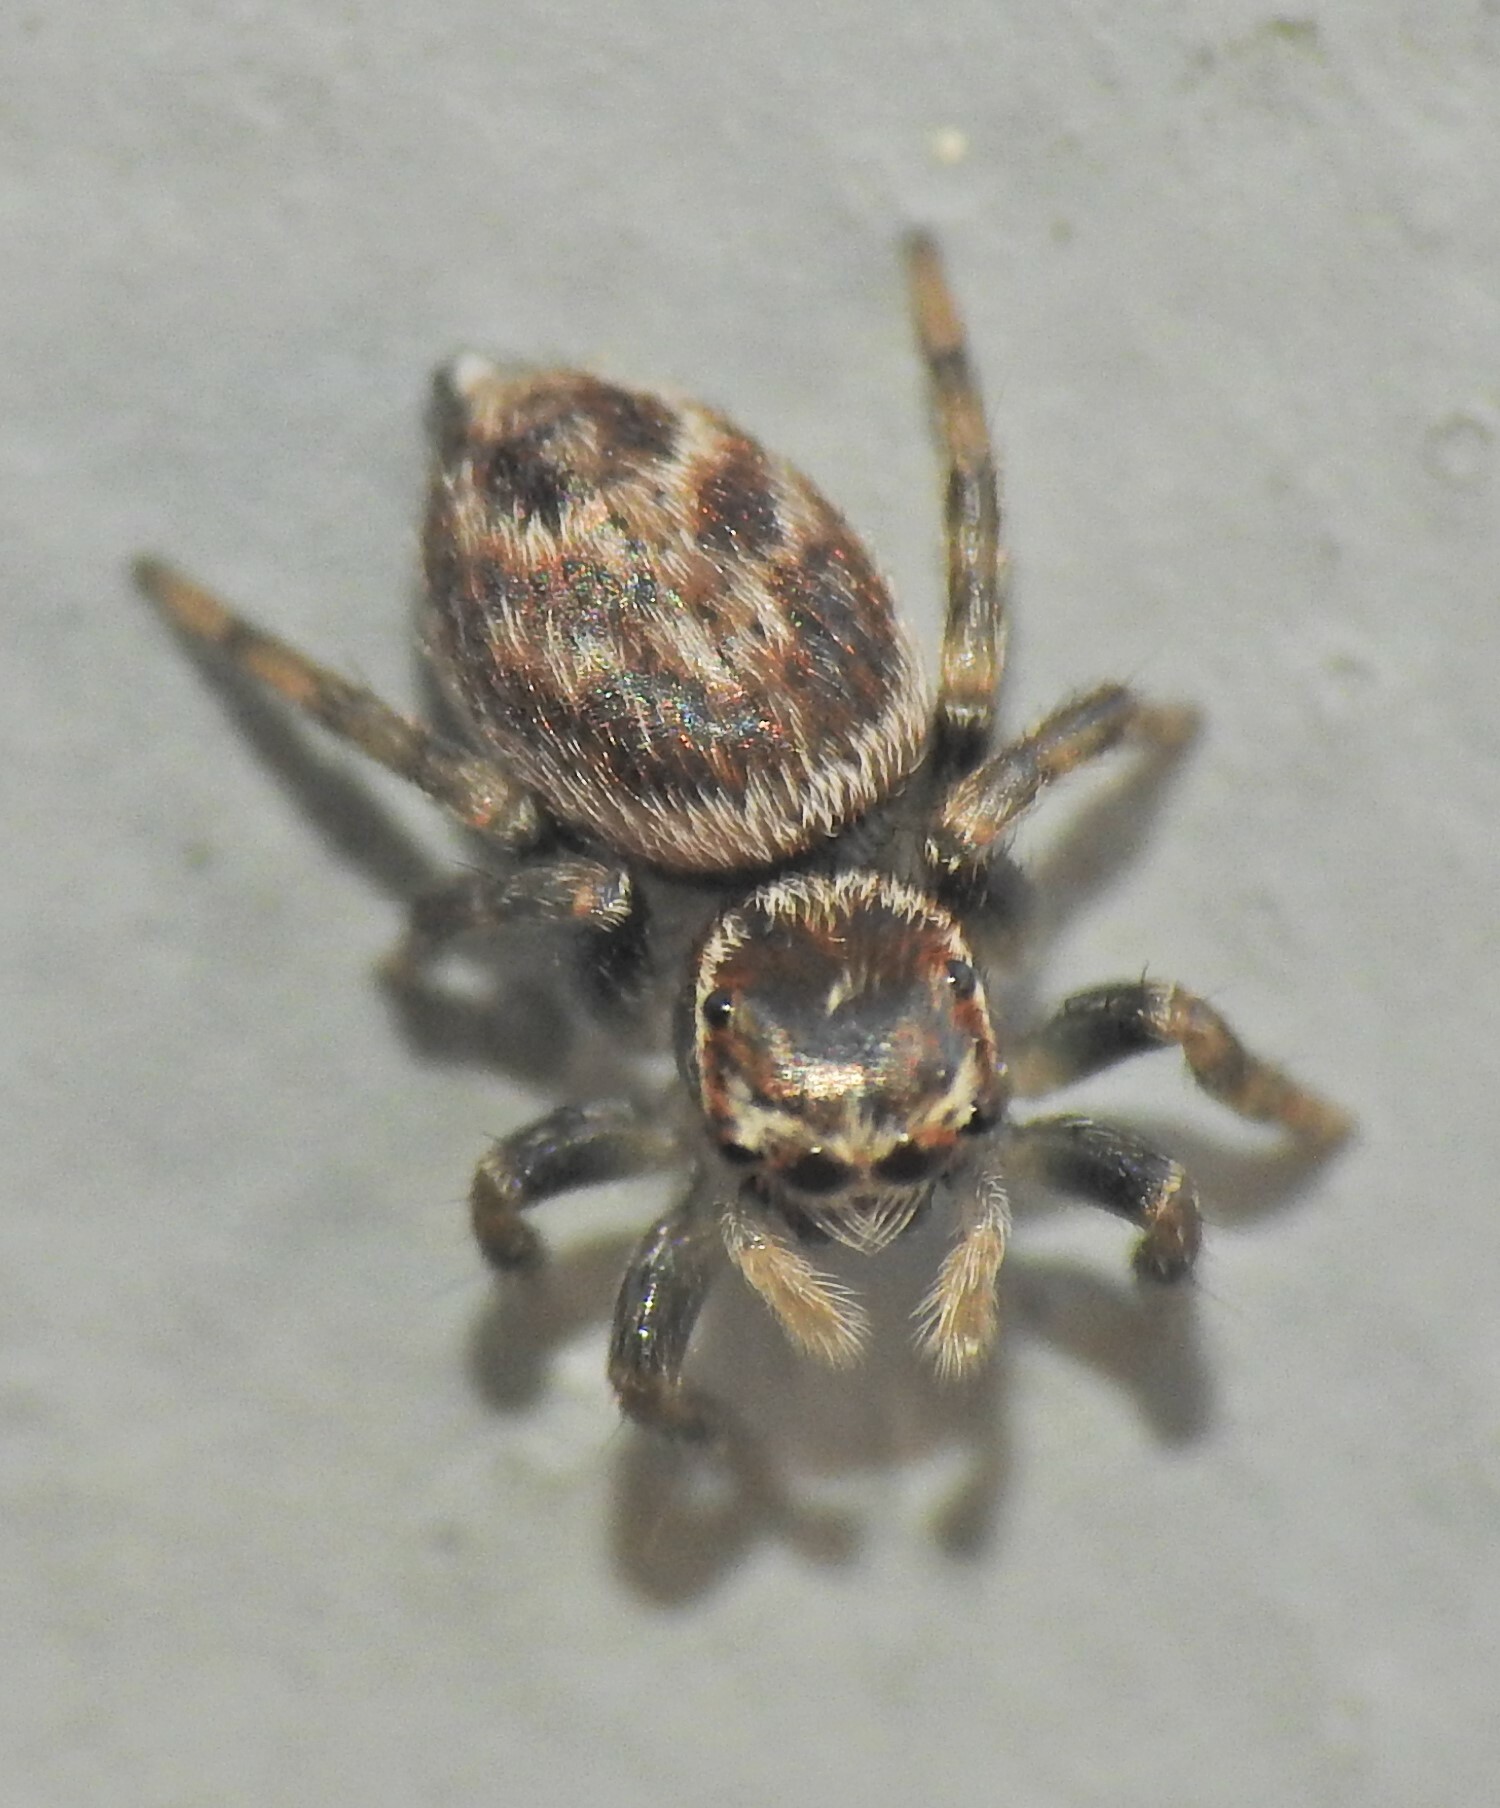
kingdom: Animalia
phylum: Arthropoda
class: Arachnida
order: Araneae
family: Salticidae
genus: Maratus
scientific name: Maratus griseus
